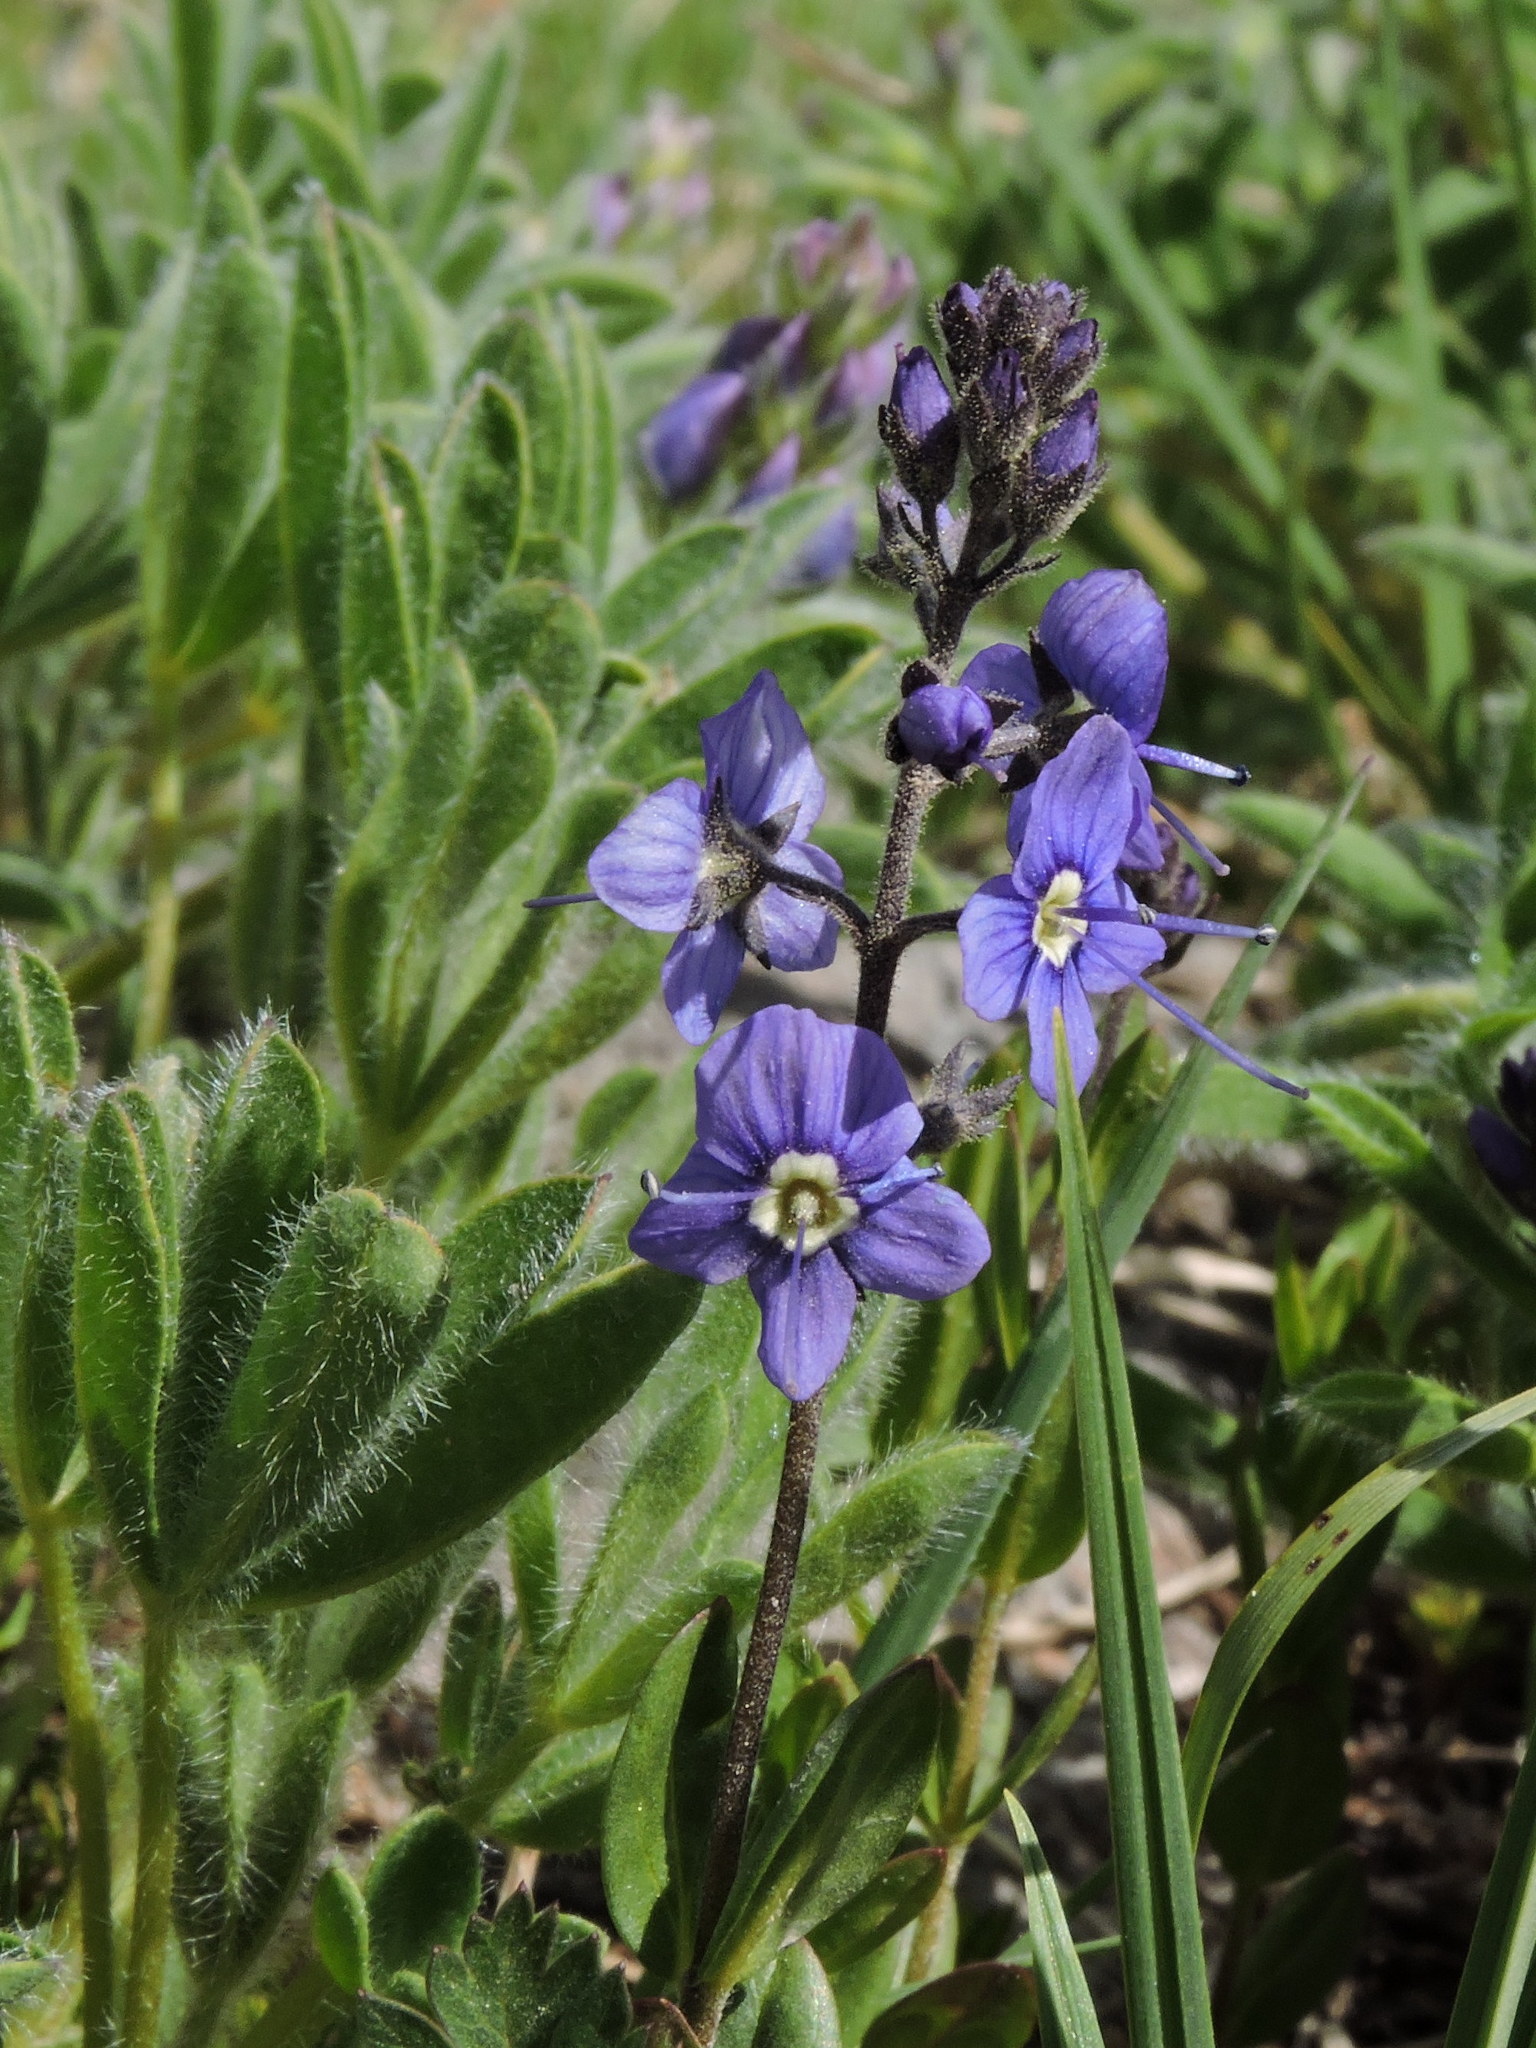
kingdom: Plantae
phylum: Tracheophyta
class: Magnoliopsida
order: Lamiales
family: Plantaginaceae
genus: Veronica
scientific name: Veronica cusickii
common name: Cusick's speedwell
